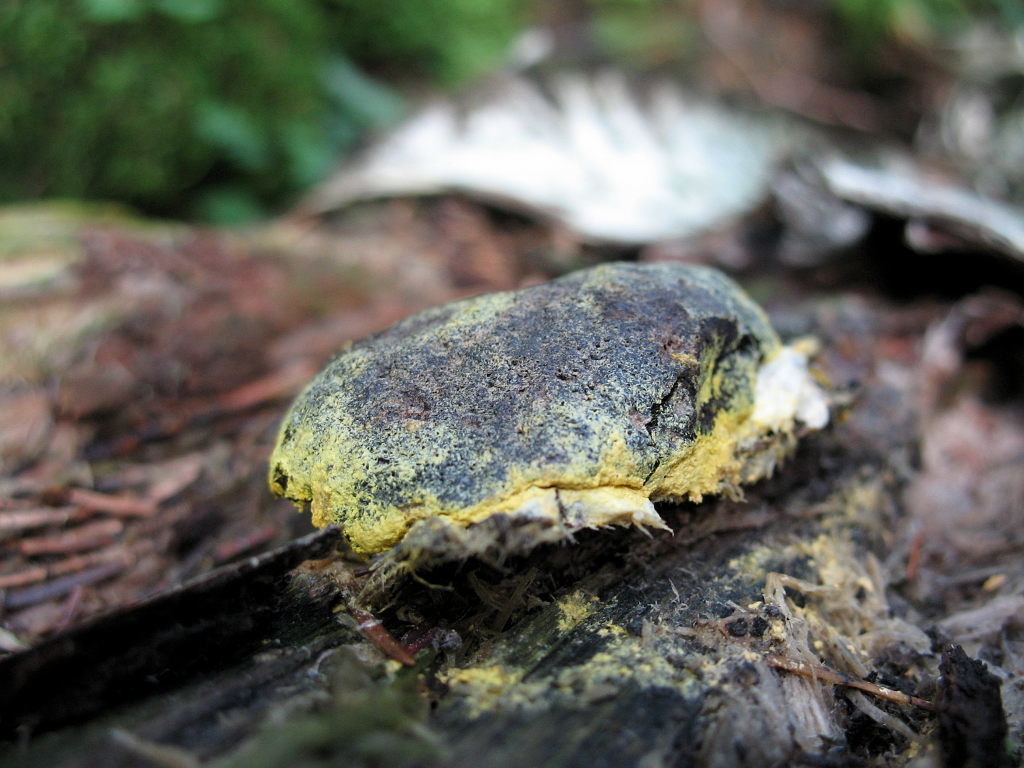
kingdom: Protozoa
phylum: Mycetozoa
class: Myxomycetes
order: Physarales
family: Physaraceae
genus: Fuligo
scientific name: Fuligo septica
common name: Dog vomit slime mold
